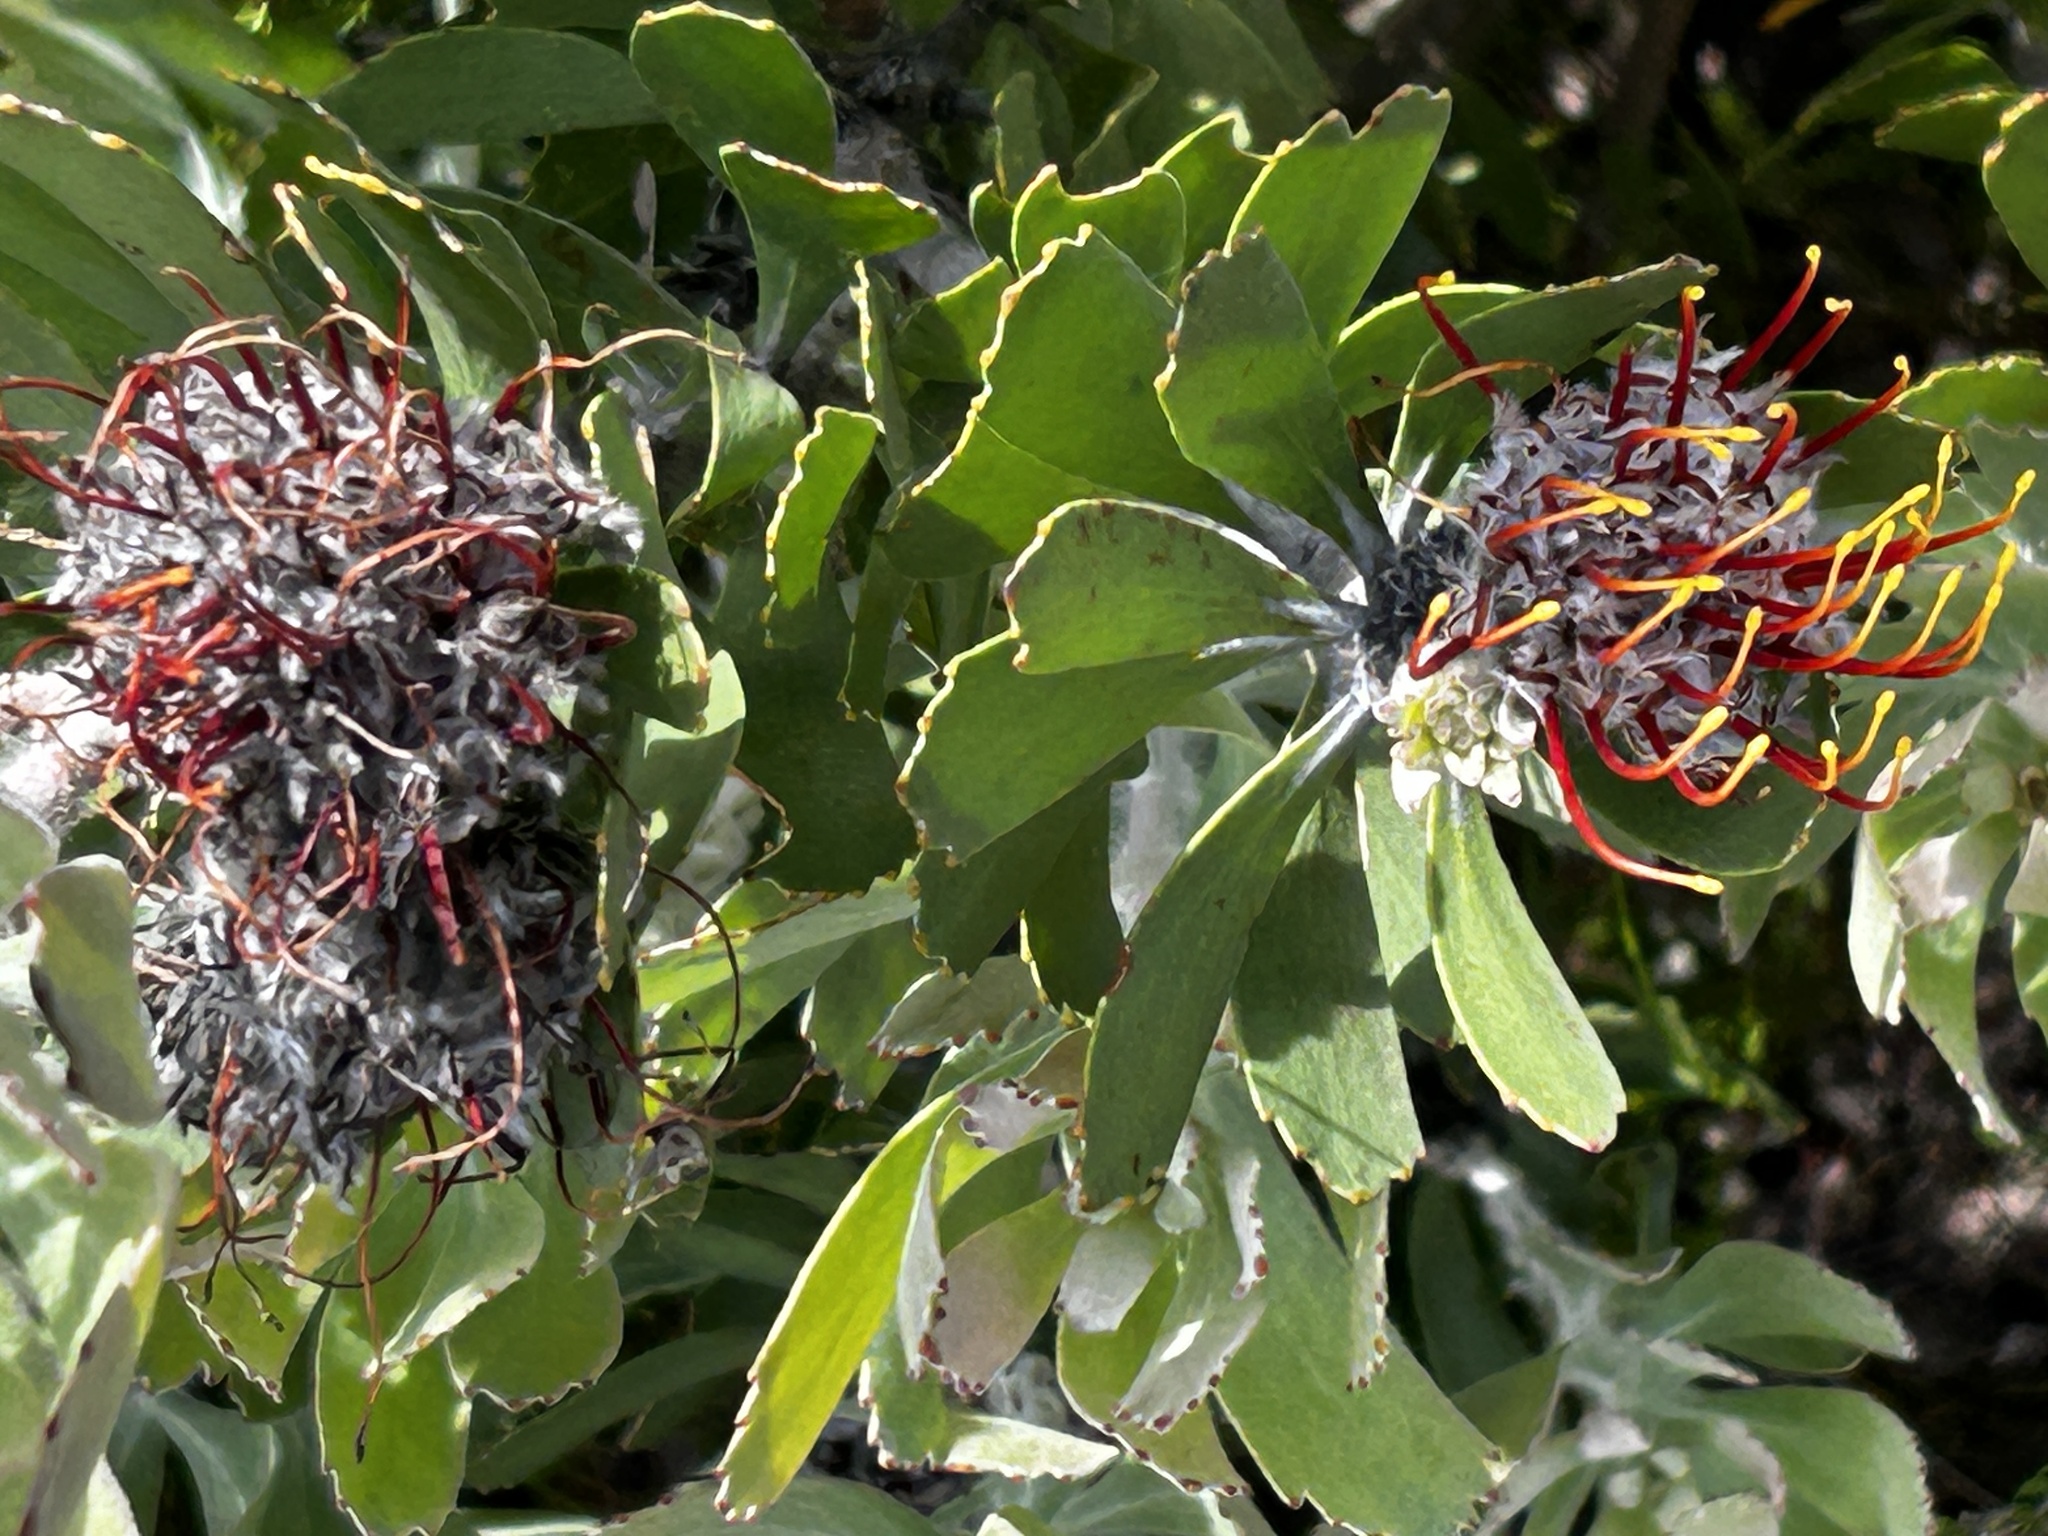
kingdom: Plantae
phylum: Tracheophyta
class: Magnoliopsida
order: Proteales
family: Proteaceae
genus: Leucospermum
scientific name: Leucospermum truncatum
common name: Limestone pincushion
